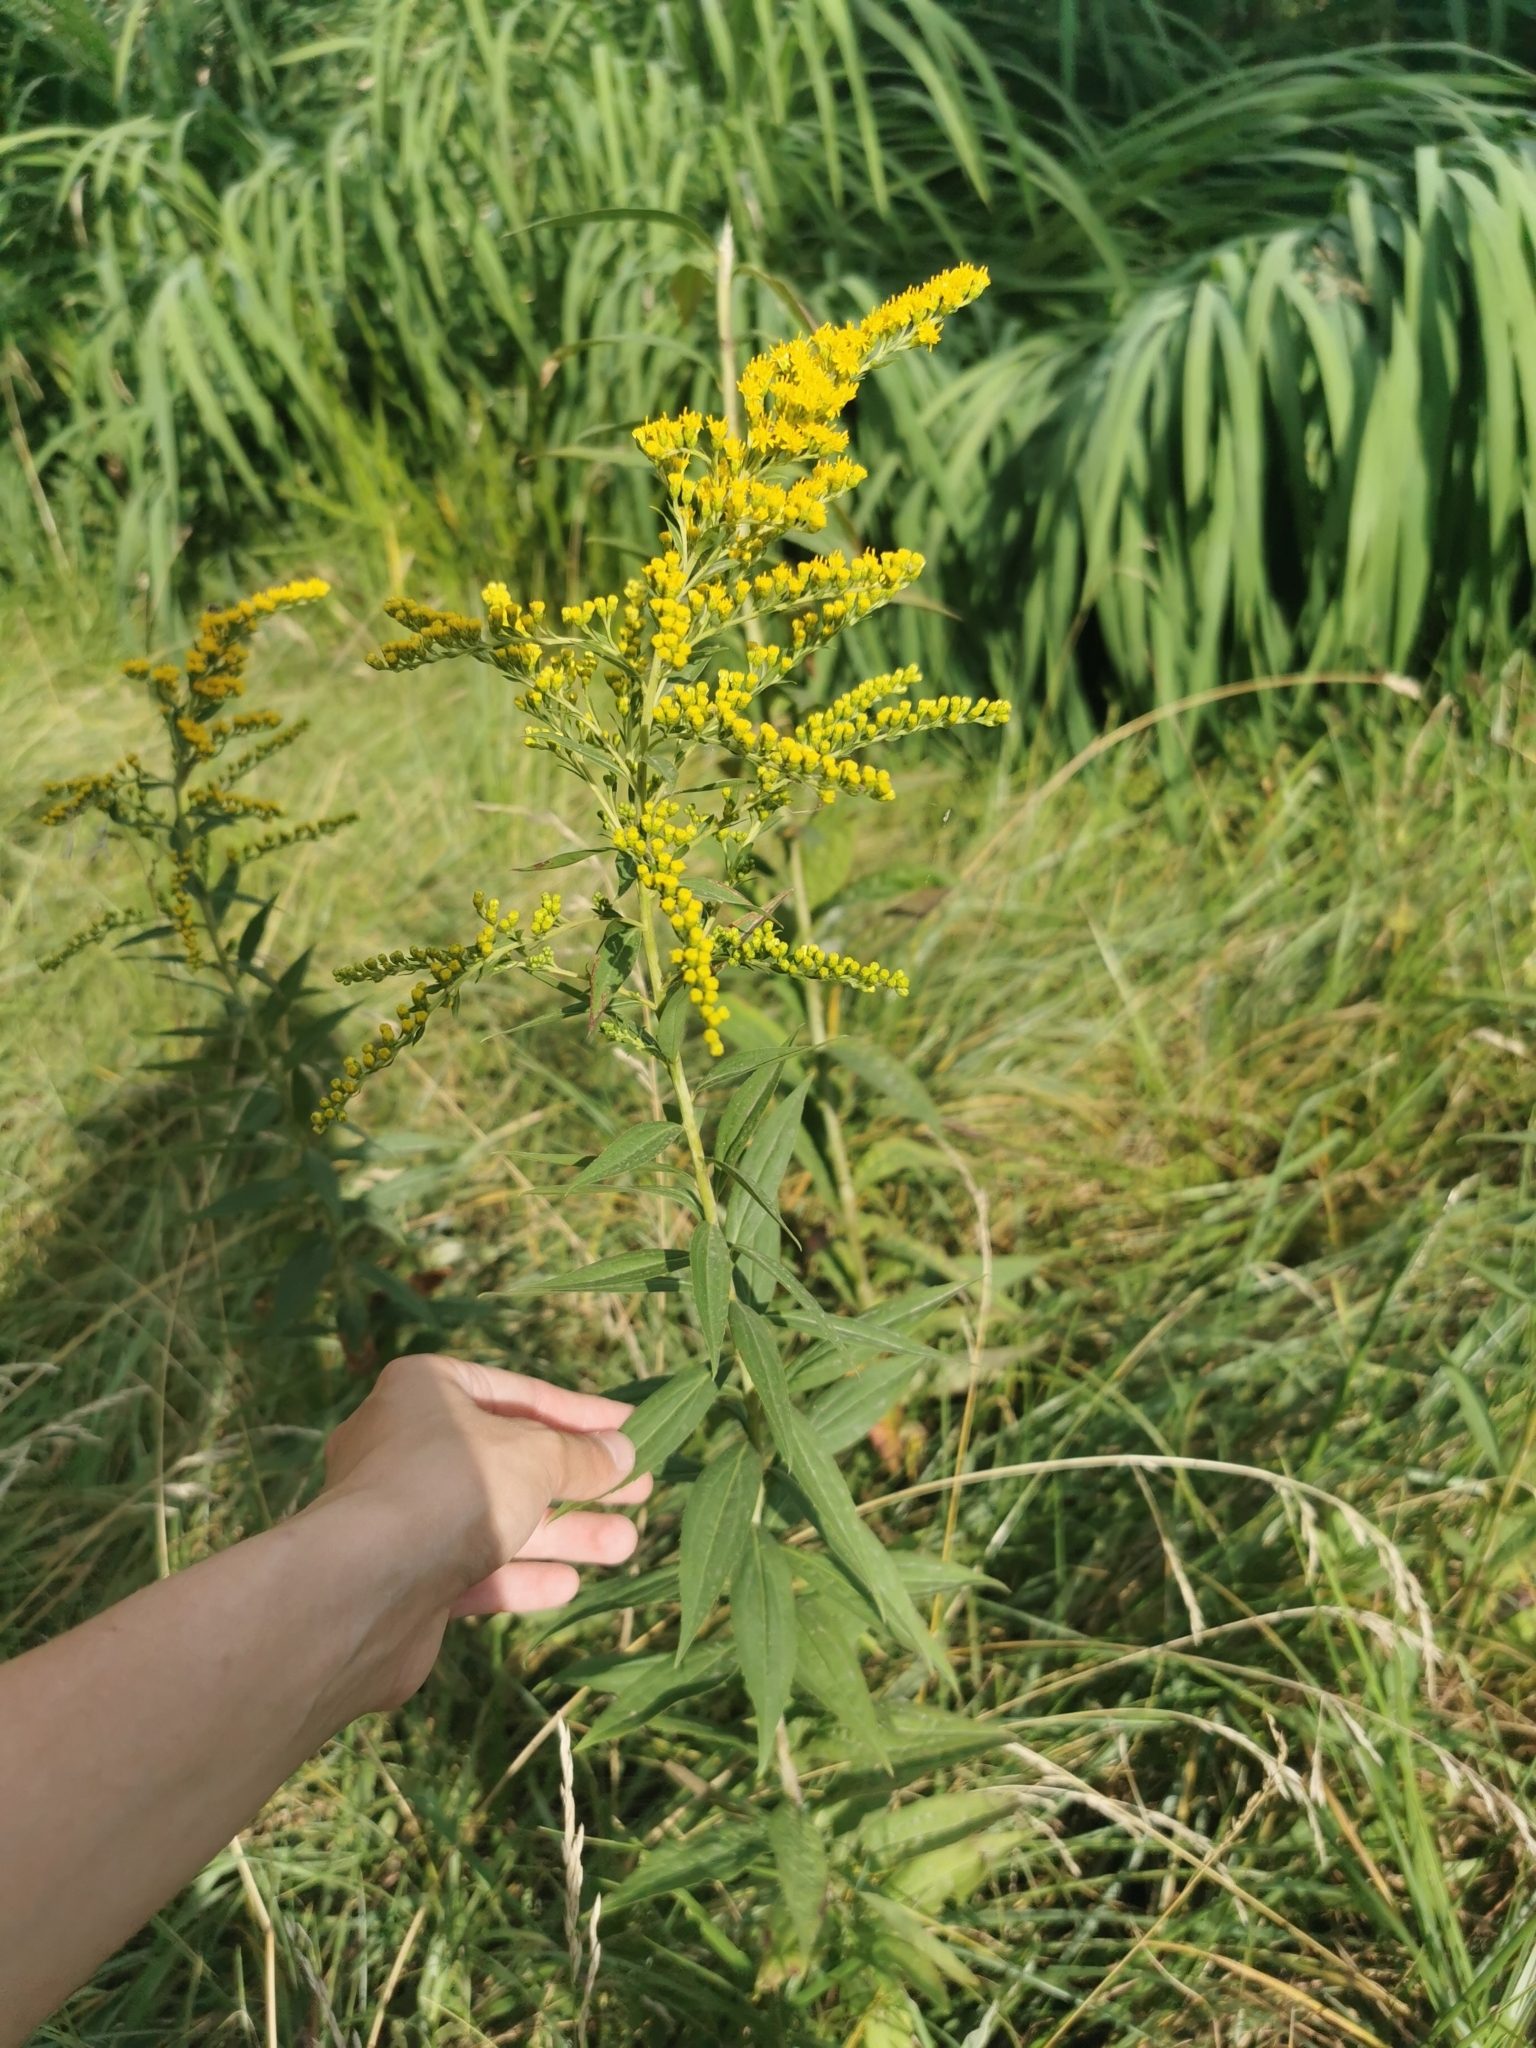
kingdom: Plantae
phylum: Tracheophyta
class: Magnoliopsida
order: Asterales
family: Asteraceae
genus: Solidago
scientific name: Solidago gigantea
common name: Giant goldenrod
